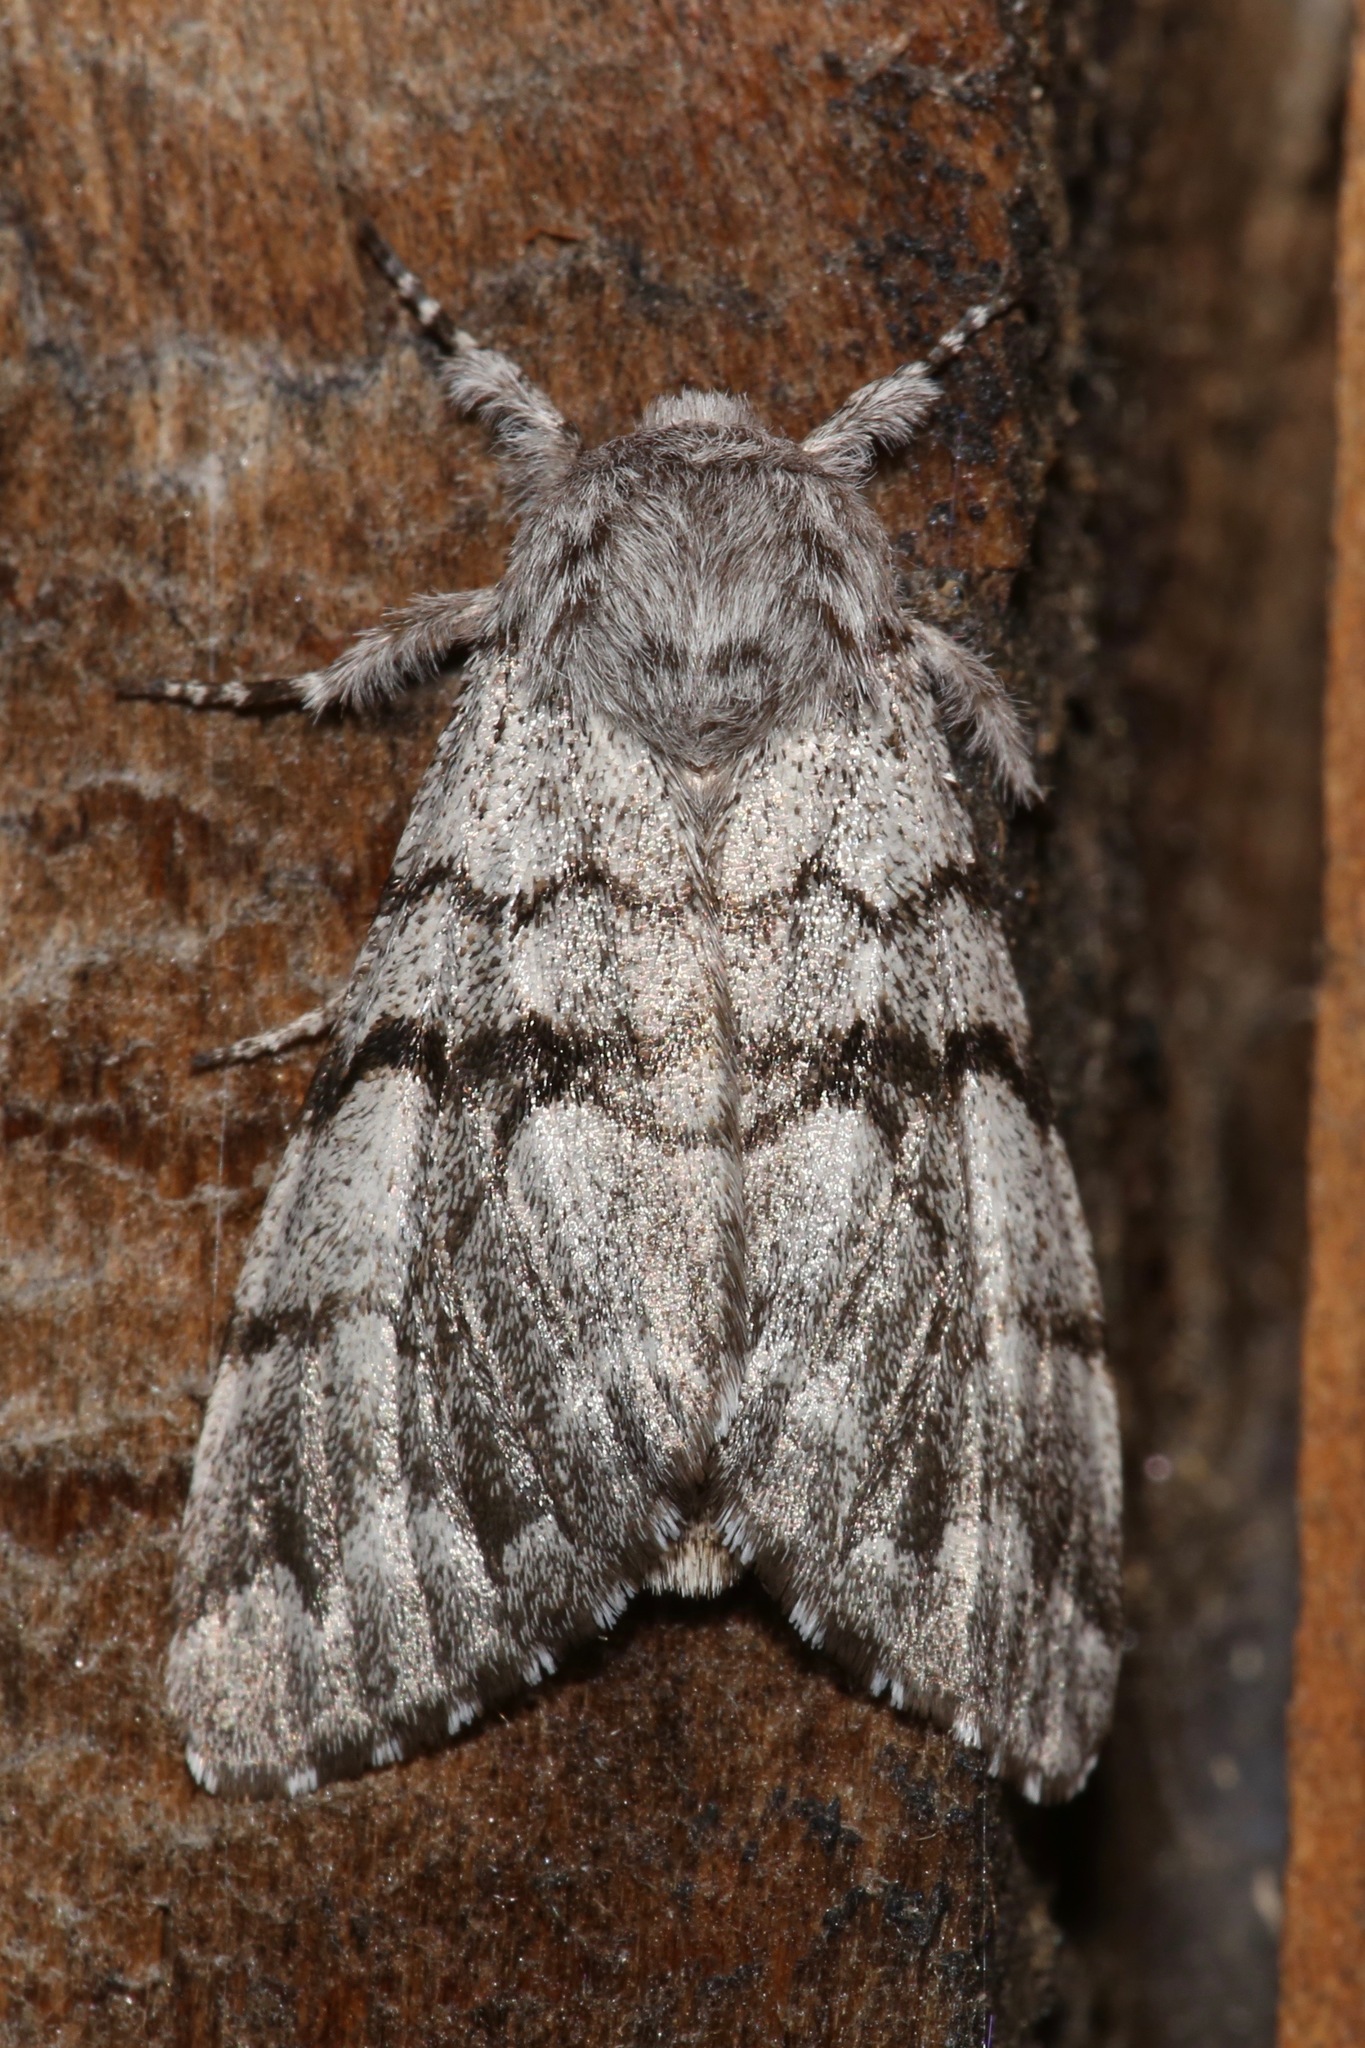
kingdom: Animalia
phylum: Arthropoda
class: Insecta
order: Lepidoptera
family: Noctuidae
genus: Panthea
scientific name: Panthea furcilla
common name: Eastern panthea moth
